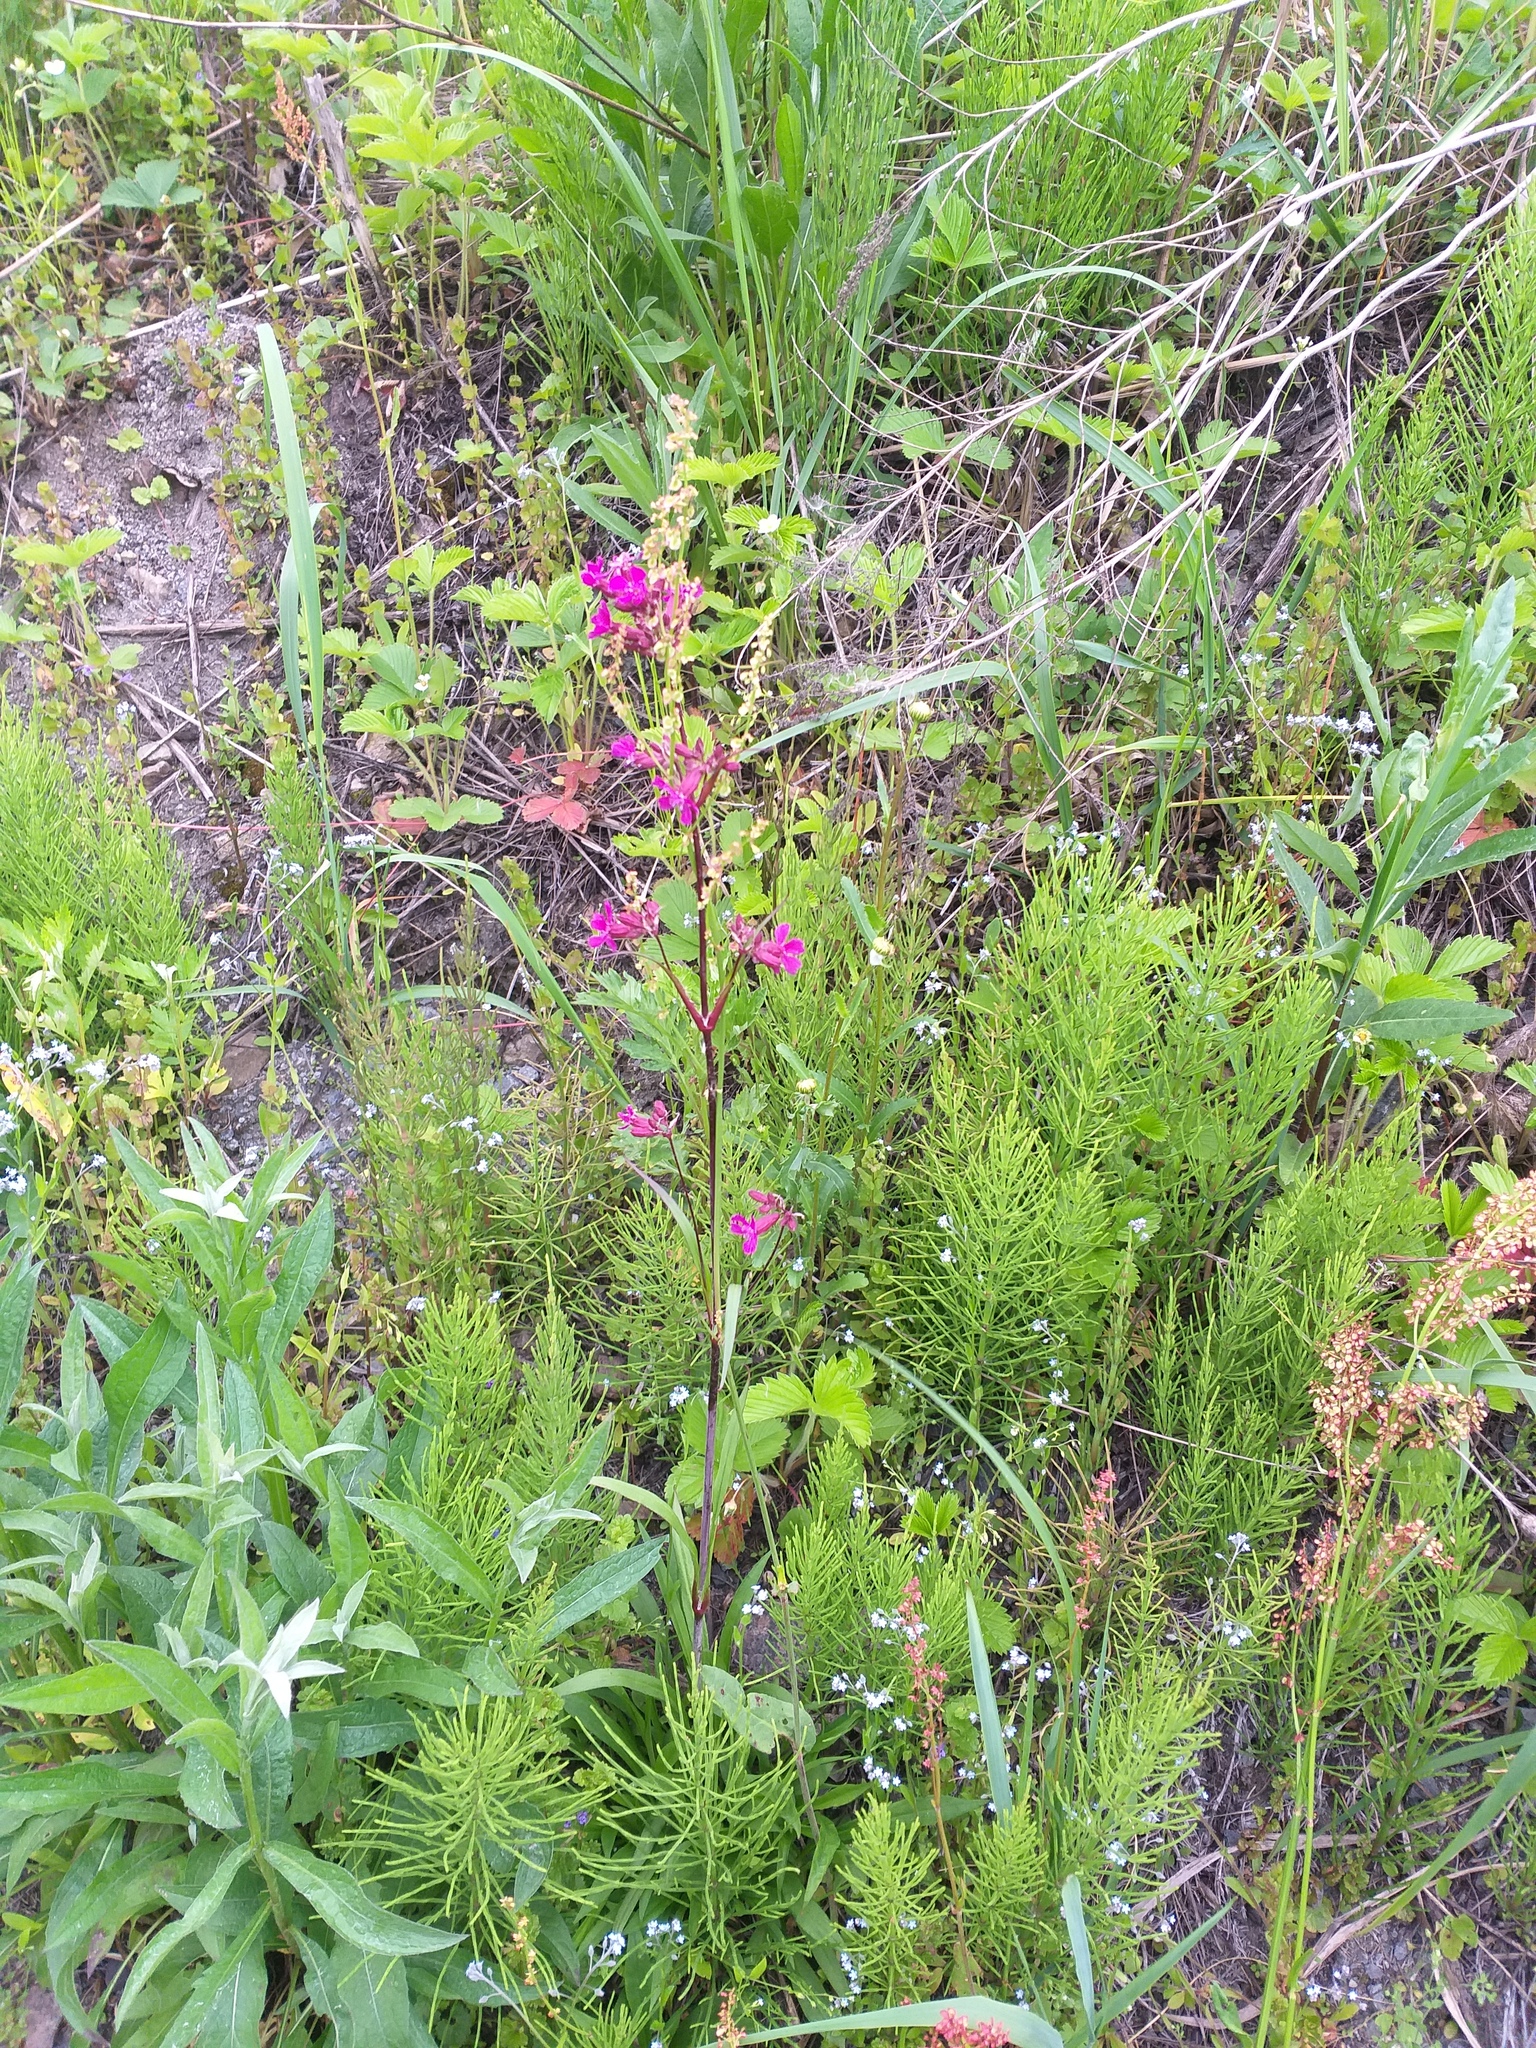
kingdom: Plantae
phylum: Tracheophyta
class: Magnoliopsida
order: Caryophyllales
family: Caryophyllaceae
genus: Viscaria
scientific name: Viscaria vulgaris
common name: Clammy campion
